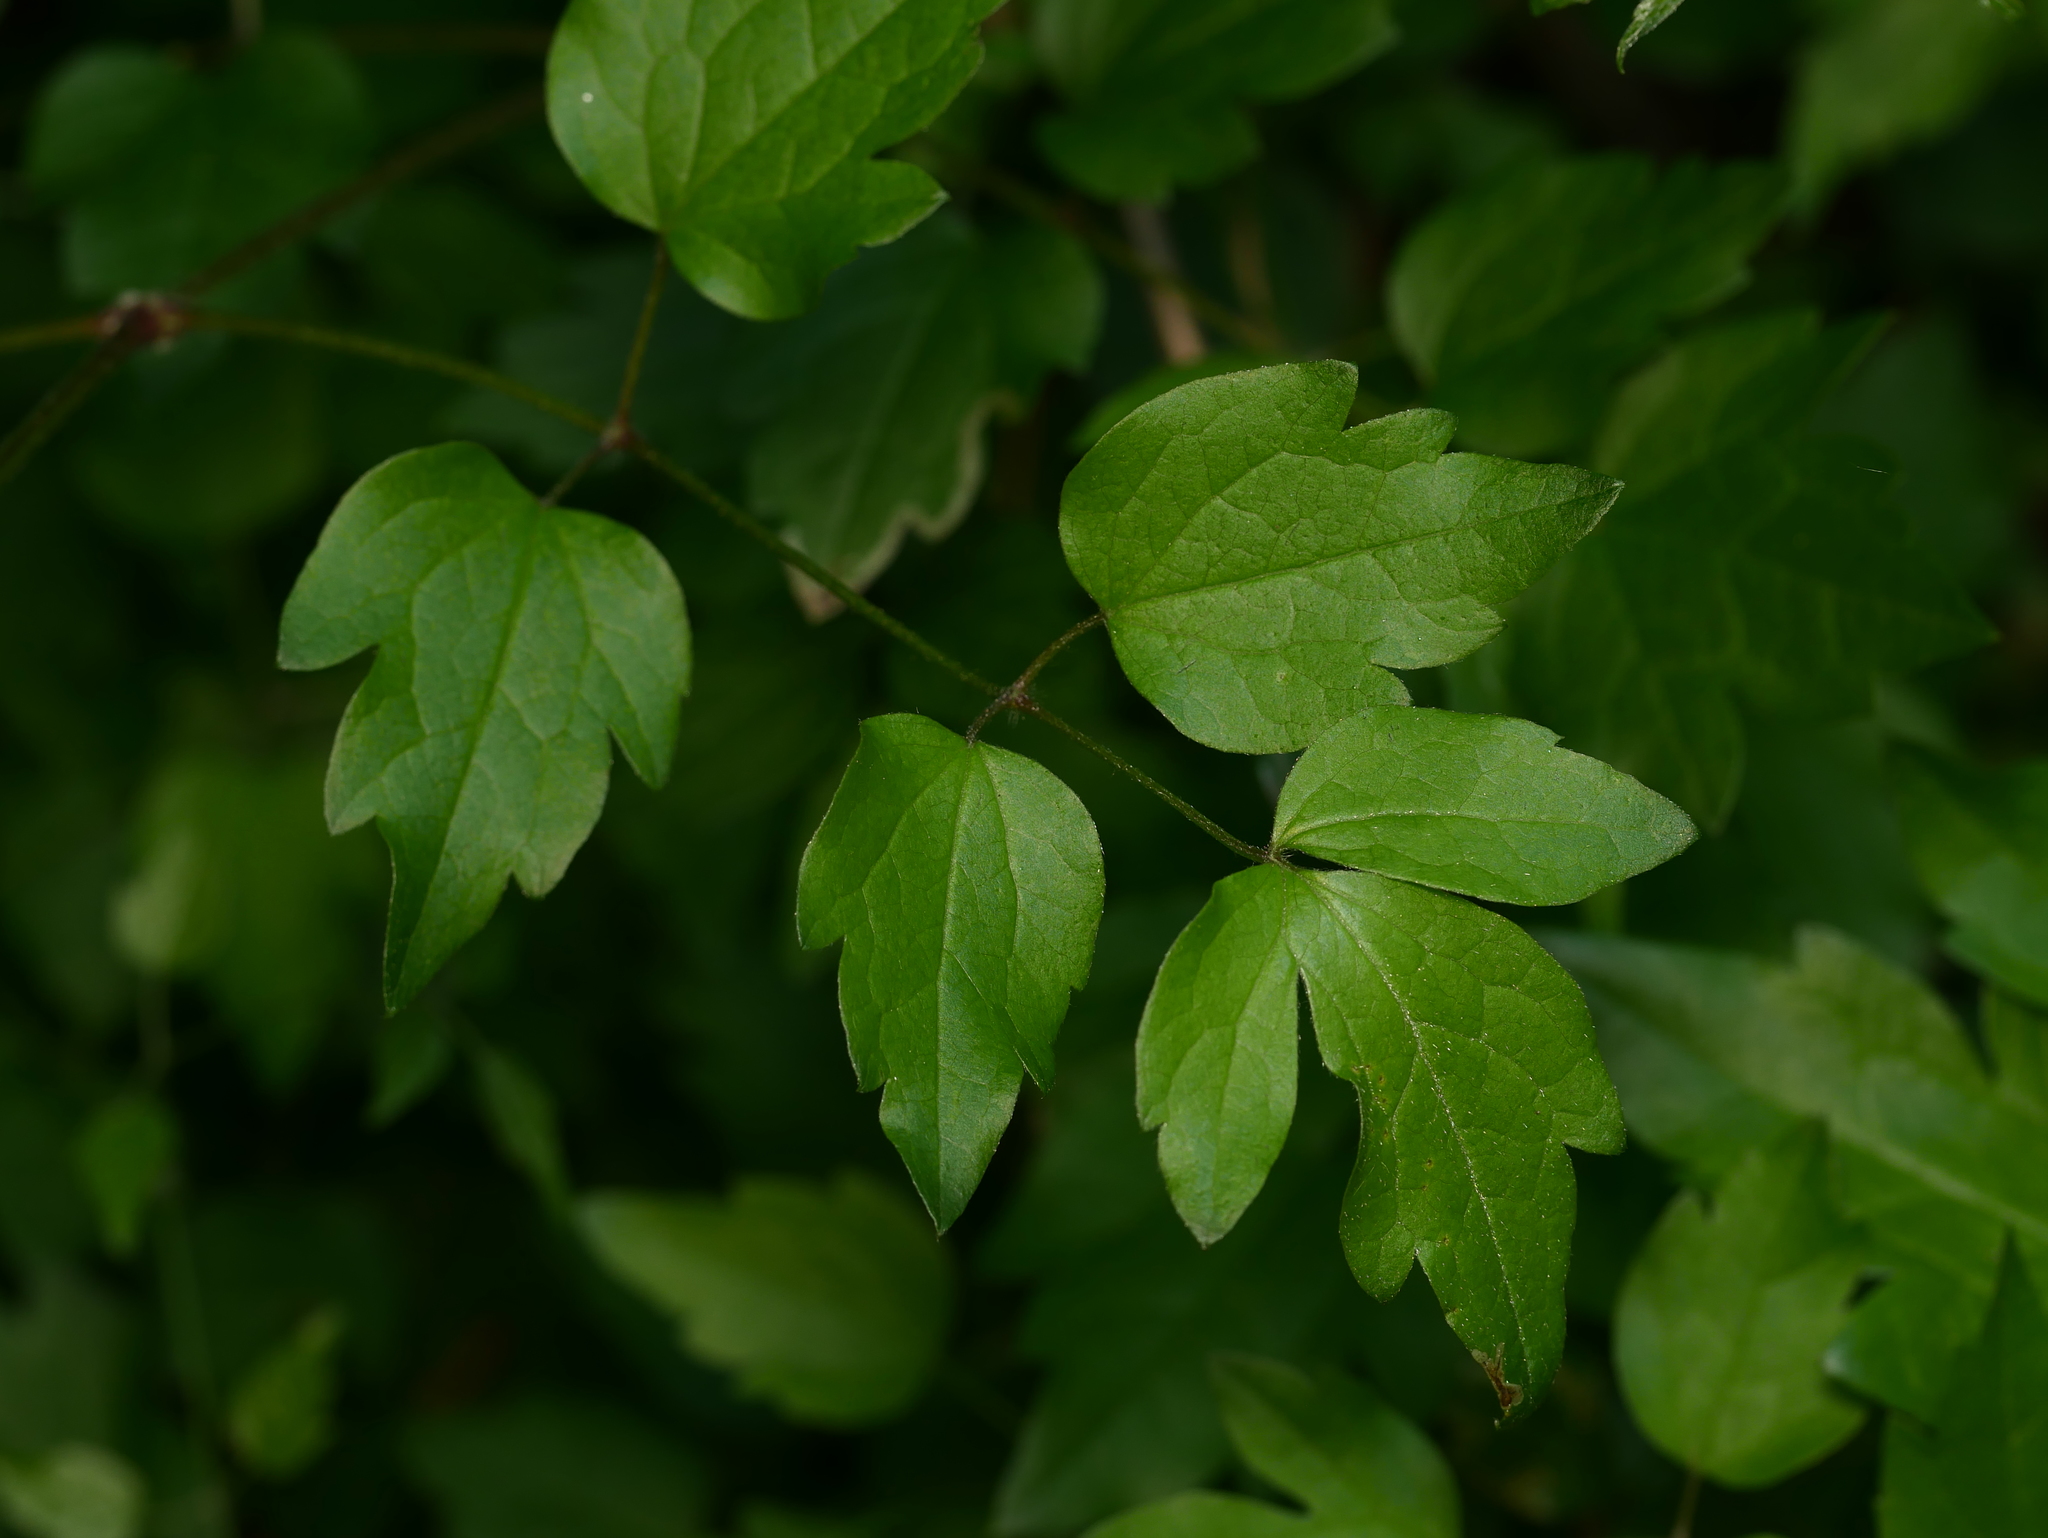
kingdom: Plantae
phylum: Tracheophyta
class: Magnoliopsida
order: Ranunculales
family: Ranunculaceae
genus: Clematis
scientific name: Clematis vitalba
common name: Evergreen clematis
